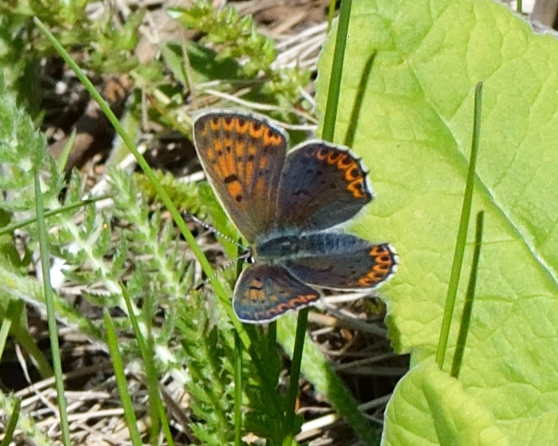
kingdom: Animalia
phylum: Arthropoda
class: Insecta
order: Lepidoptera
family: Lycaenidae
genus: Loweia
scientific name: Loweia tityrus
